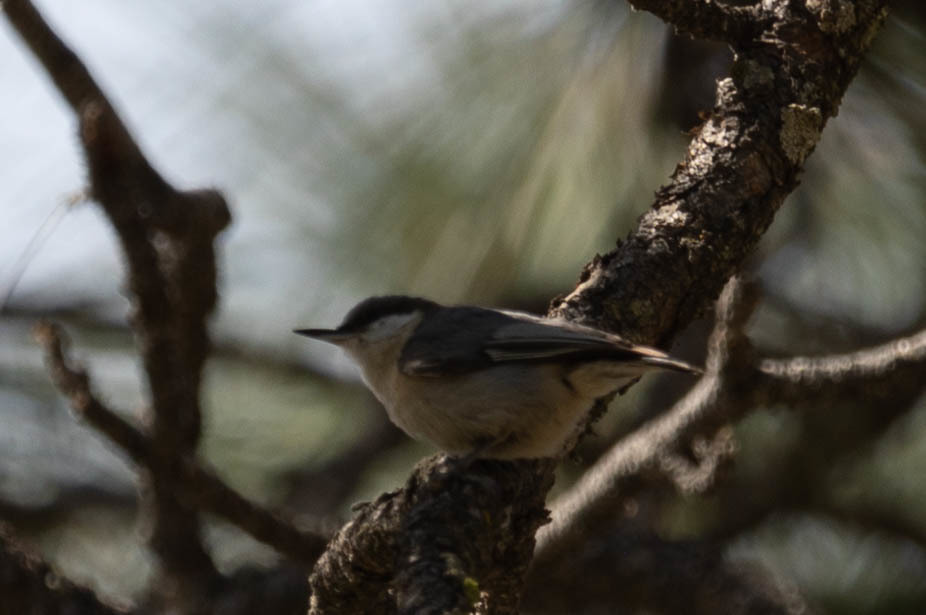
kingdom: Animalia
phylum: Chordata
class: Aves
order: Passeriformes
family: Sittidae
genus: Sitta
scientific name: Sitta pygmaea
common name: Pygmy nuthatch
